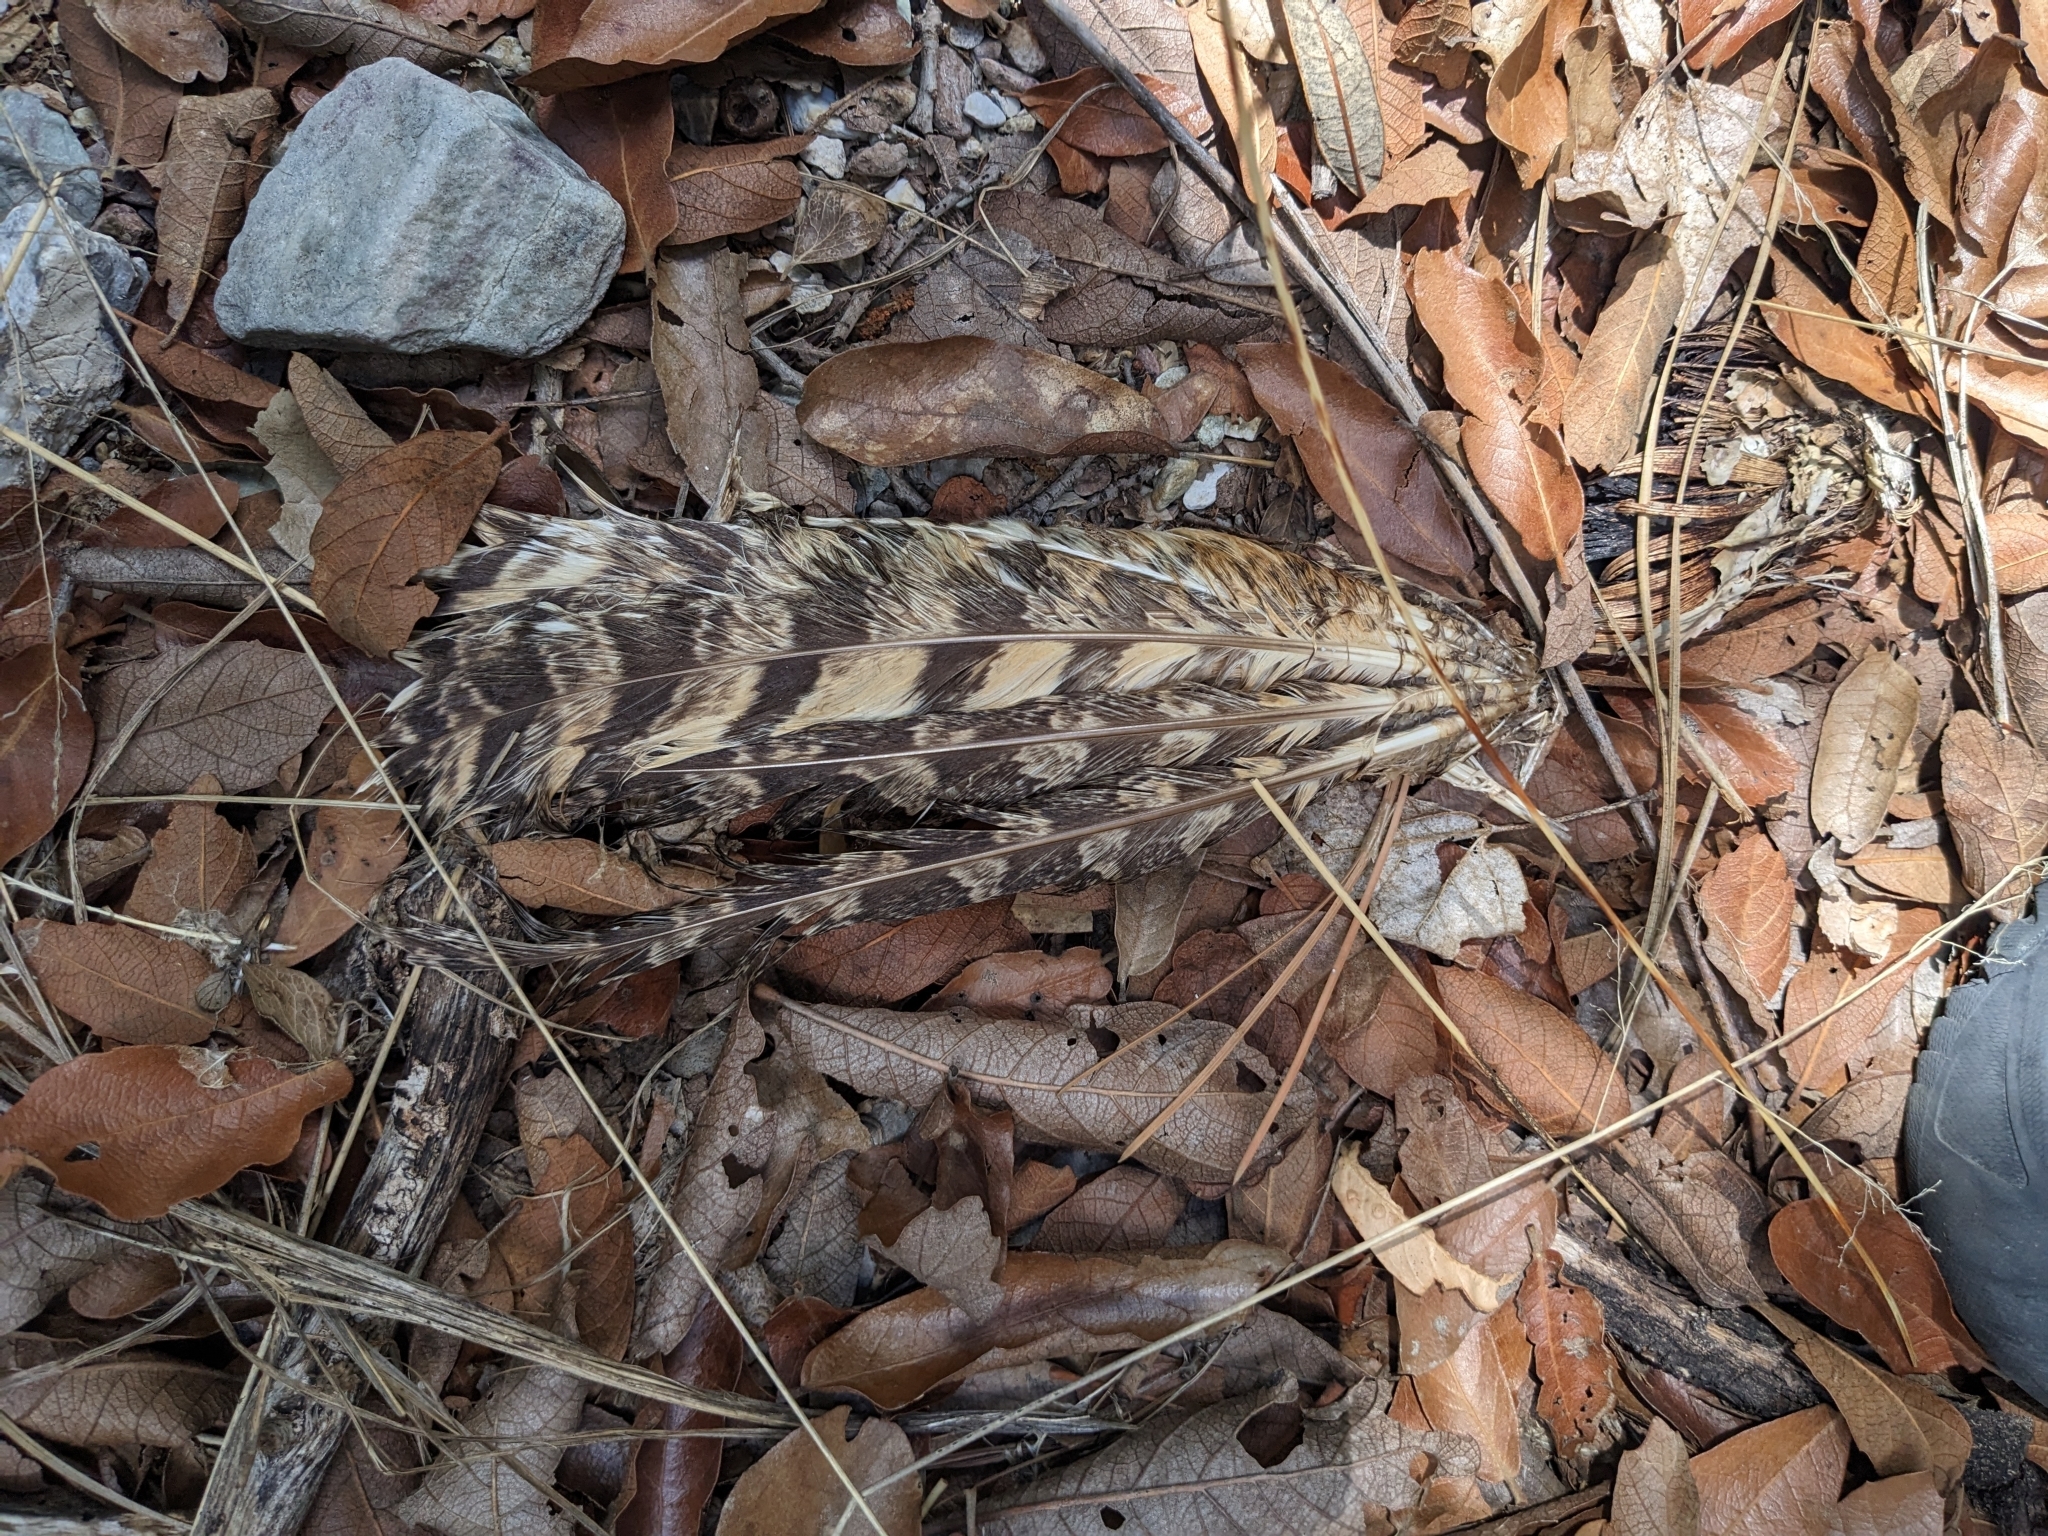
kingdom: Animalia
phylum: Chordata
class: Aves
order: Strigiformes
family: Strigidae
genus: Bubo
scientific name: Bubo virginianus
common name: Great horned owl
